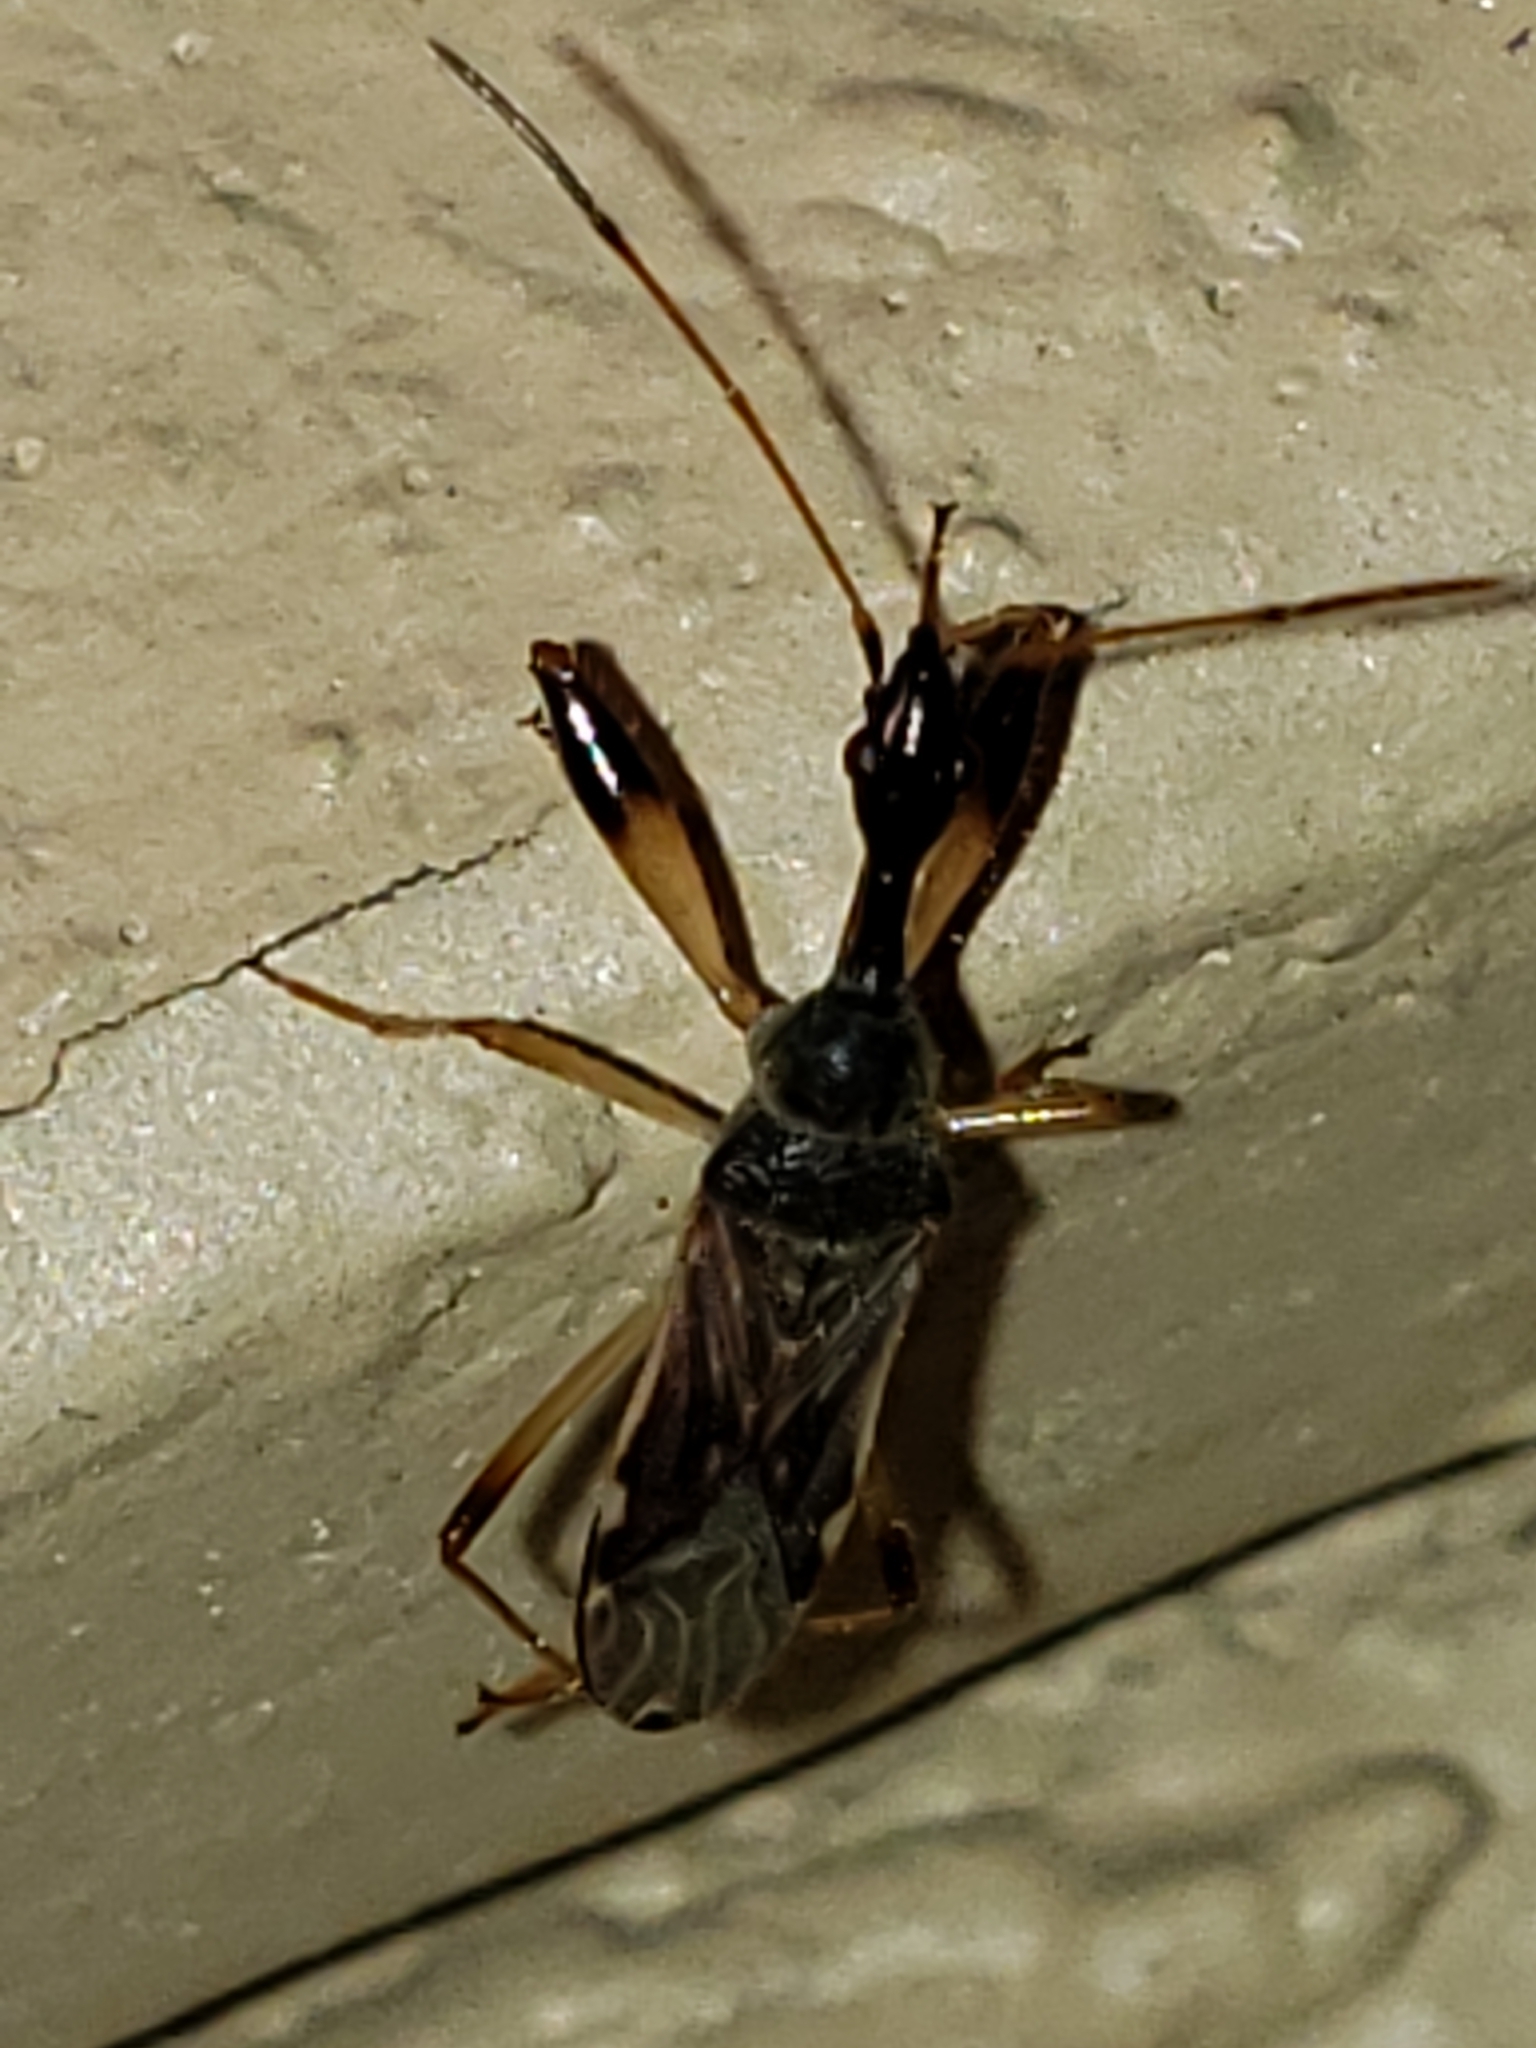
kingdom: Animalia
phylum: Arthropoda
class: Insecta
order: Hemiptera
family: Rhyparochromidae
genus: Myodocha
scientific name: Myodocha serripes
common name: Long-necked seed bug
